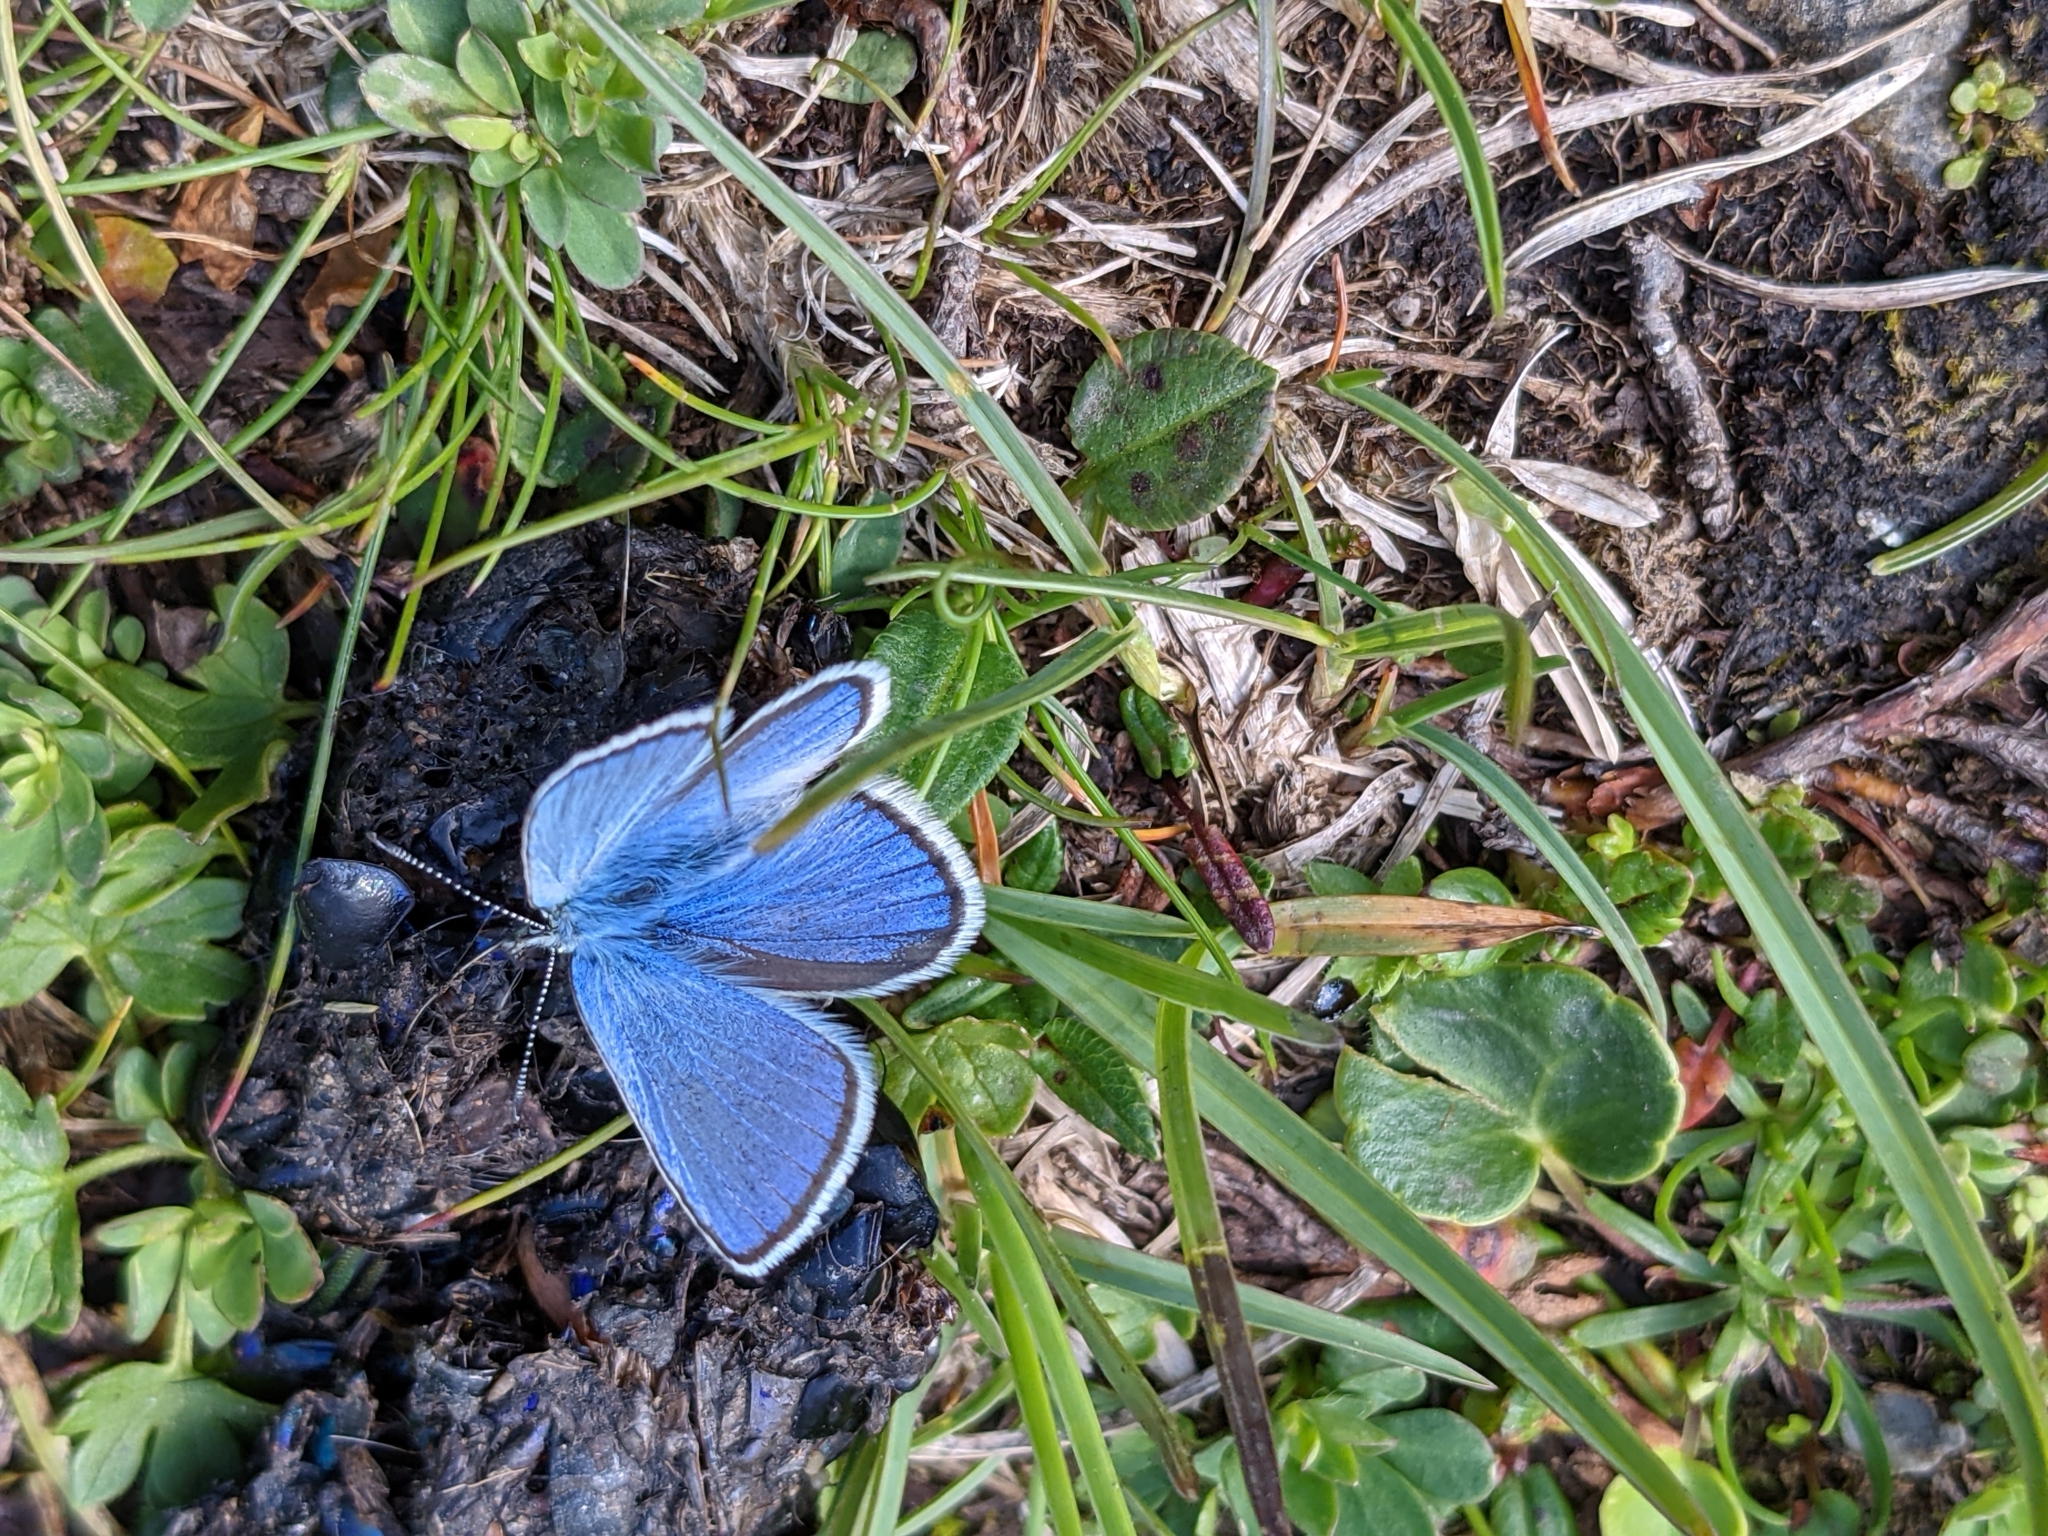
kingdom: Animalia
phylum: Arthropoda
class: Insecta
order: Lepidoptera
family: Lycaenidae
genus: Albulina
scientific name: Albulina orbitulus
